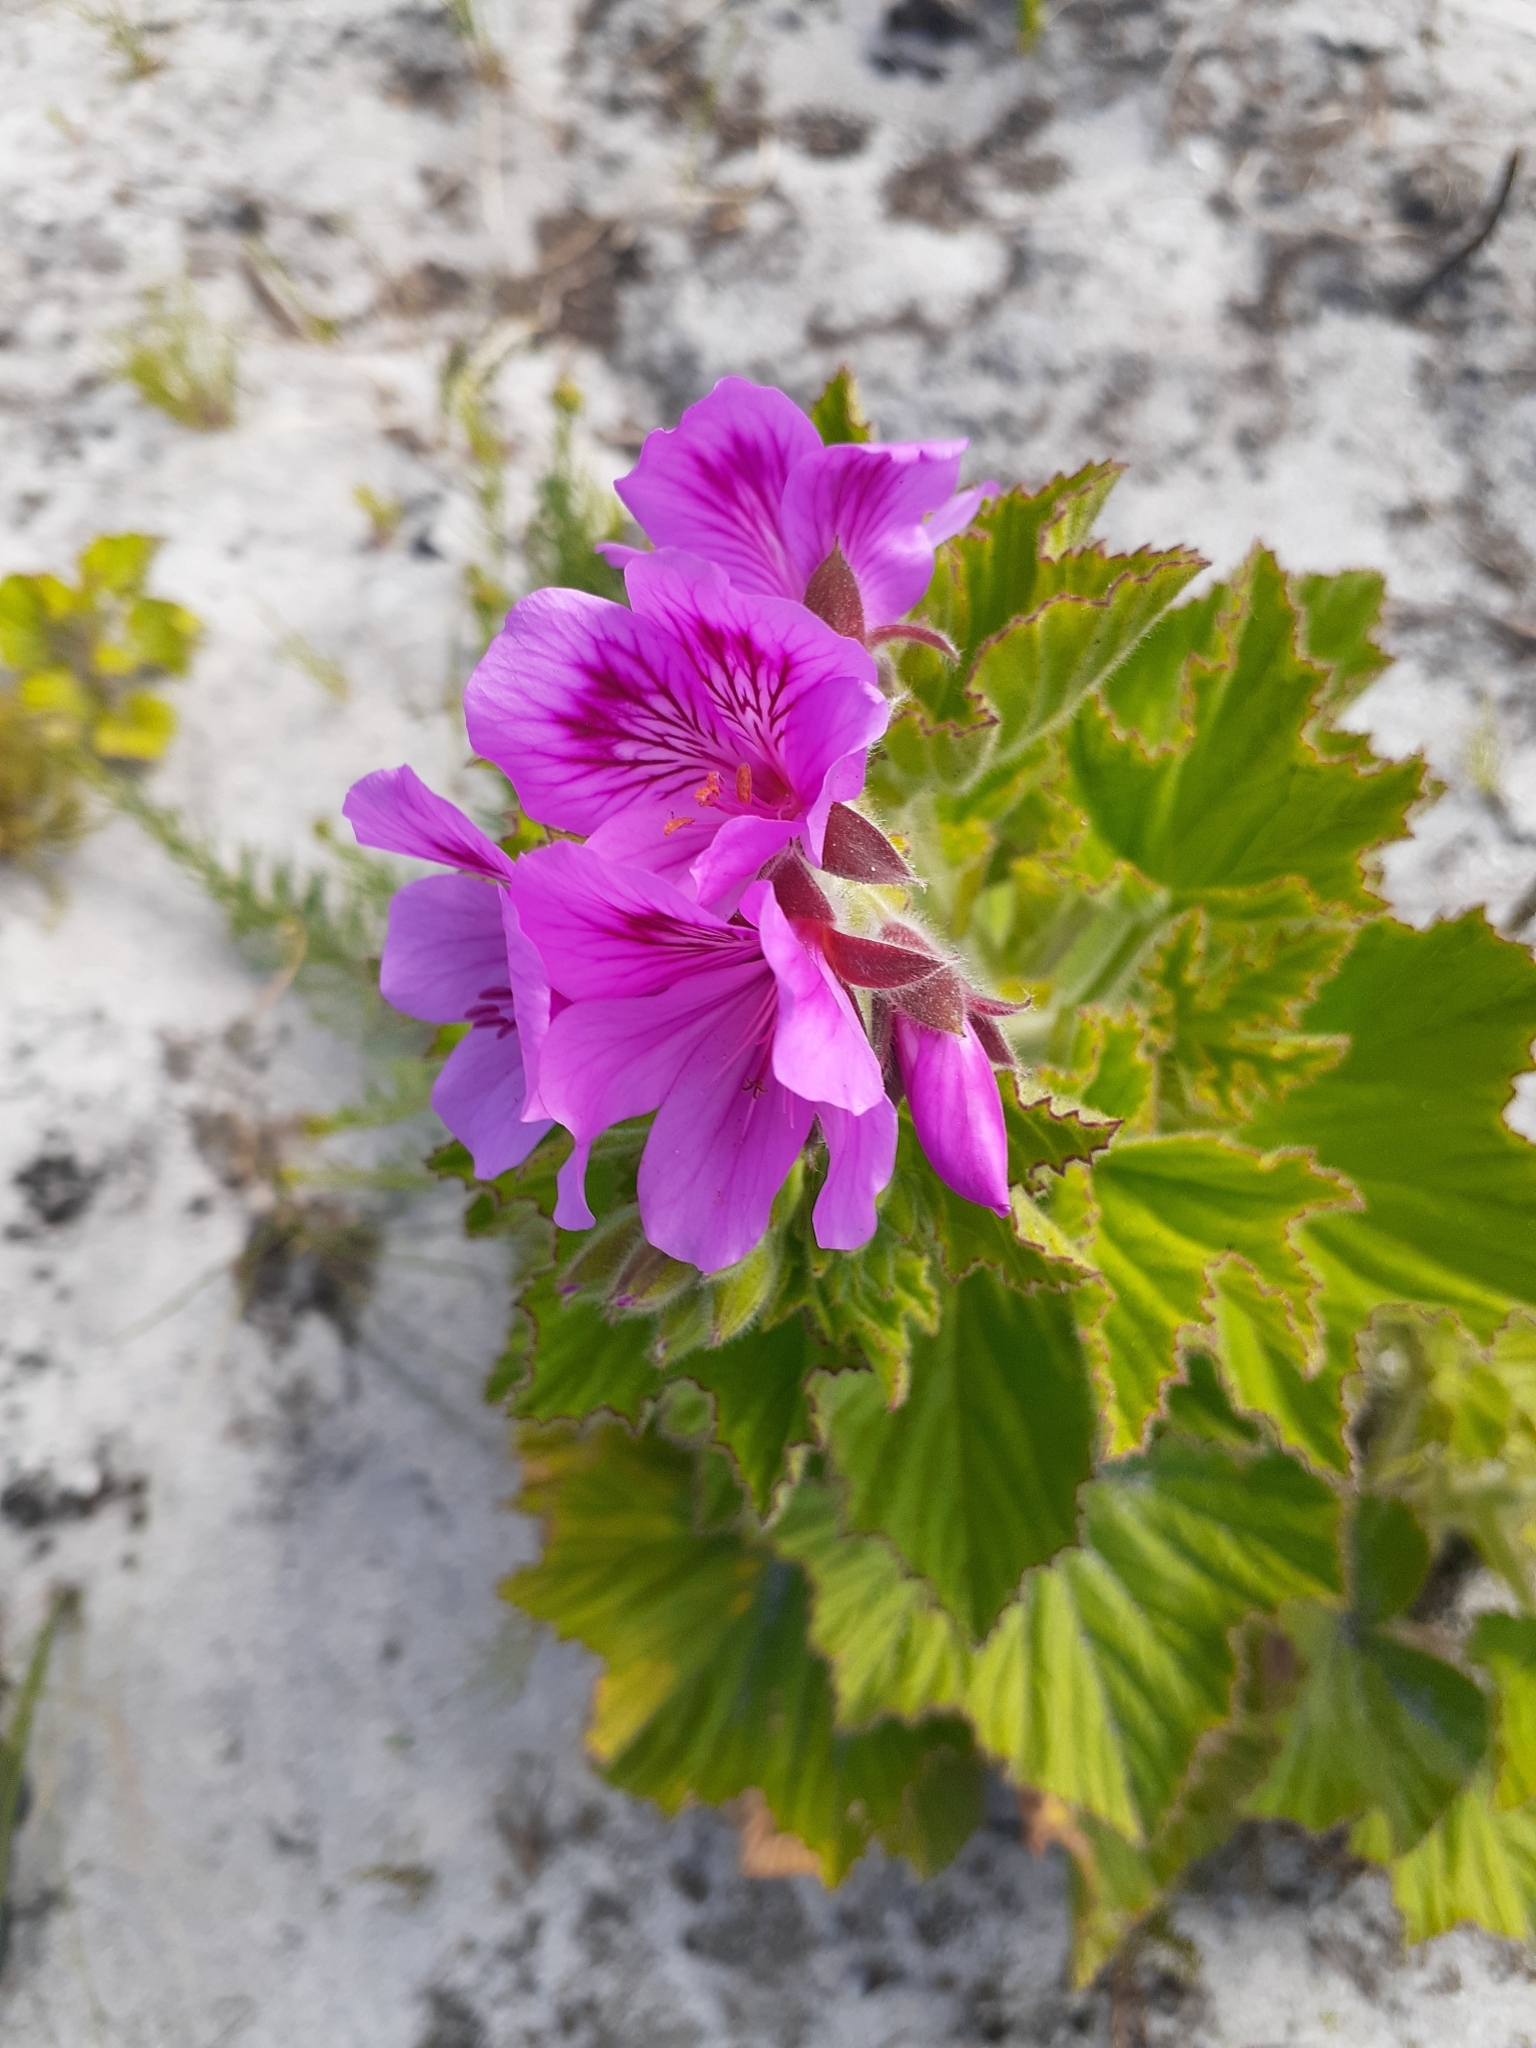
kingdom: Plantae
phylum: Tracheophyta
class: Magnoliopsida
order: Geraniales
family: Geraniaceae
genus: Pelargonium
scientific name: Pelargonium cucullatum
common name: Tree pelargonium
